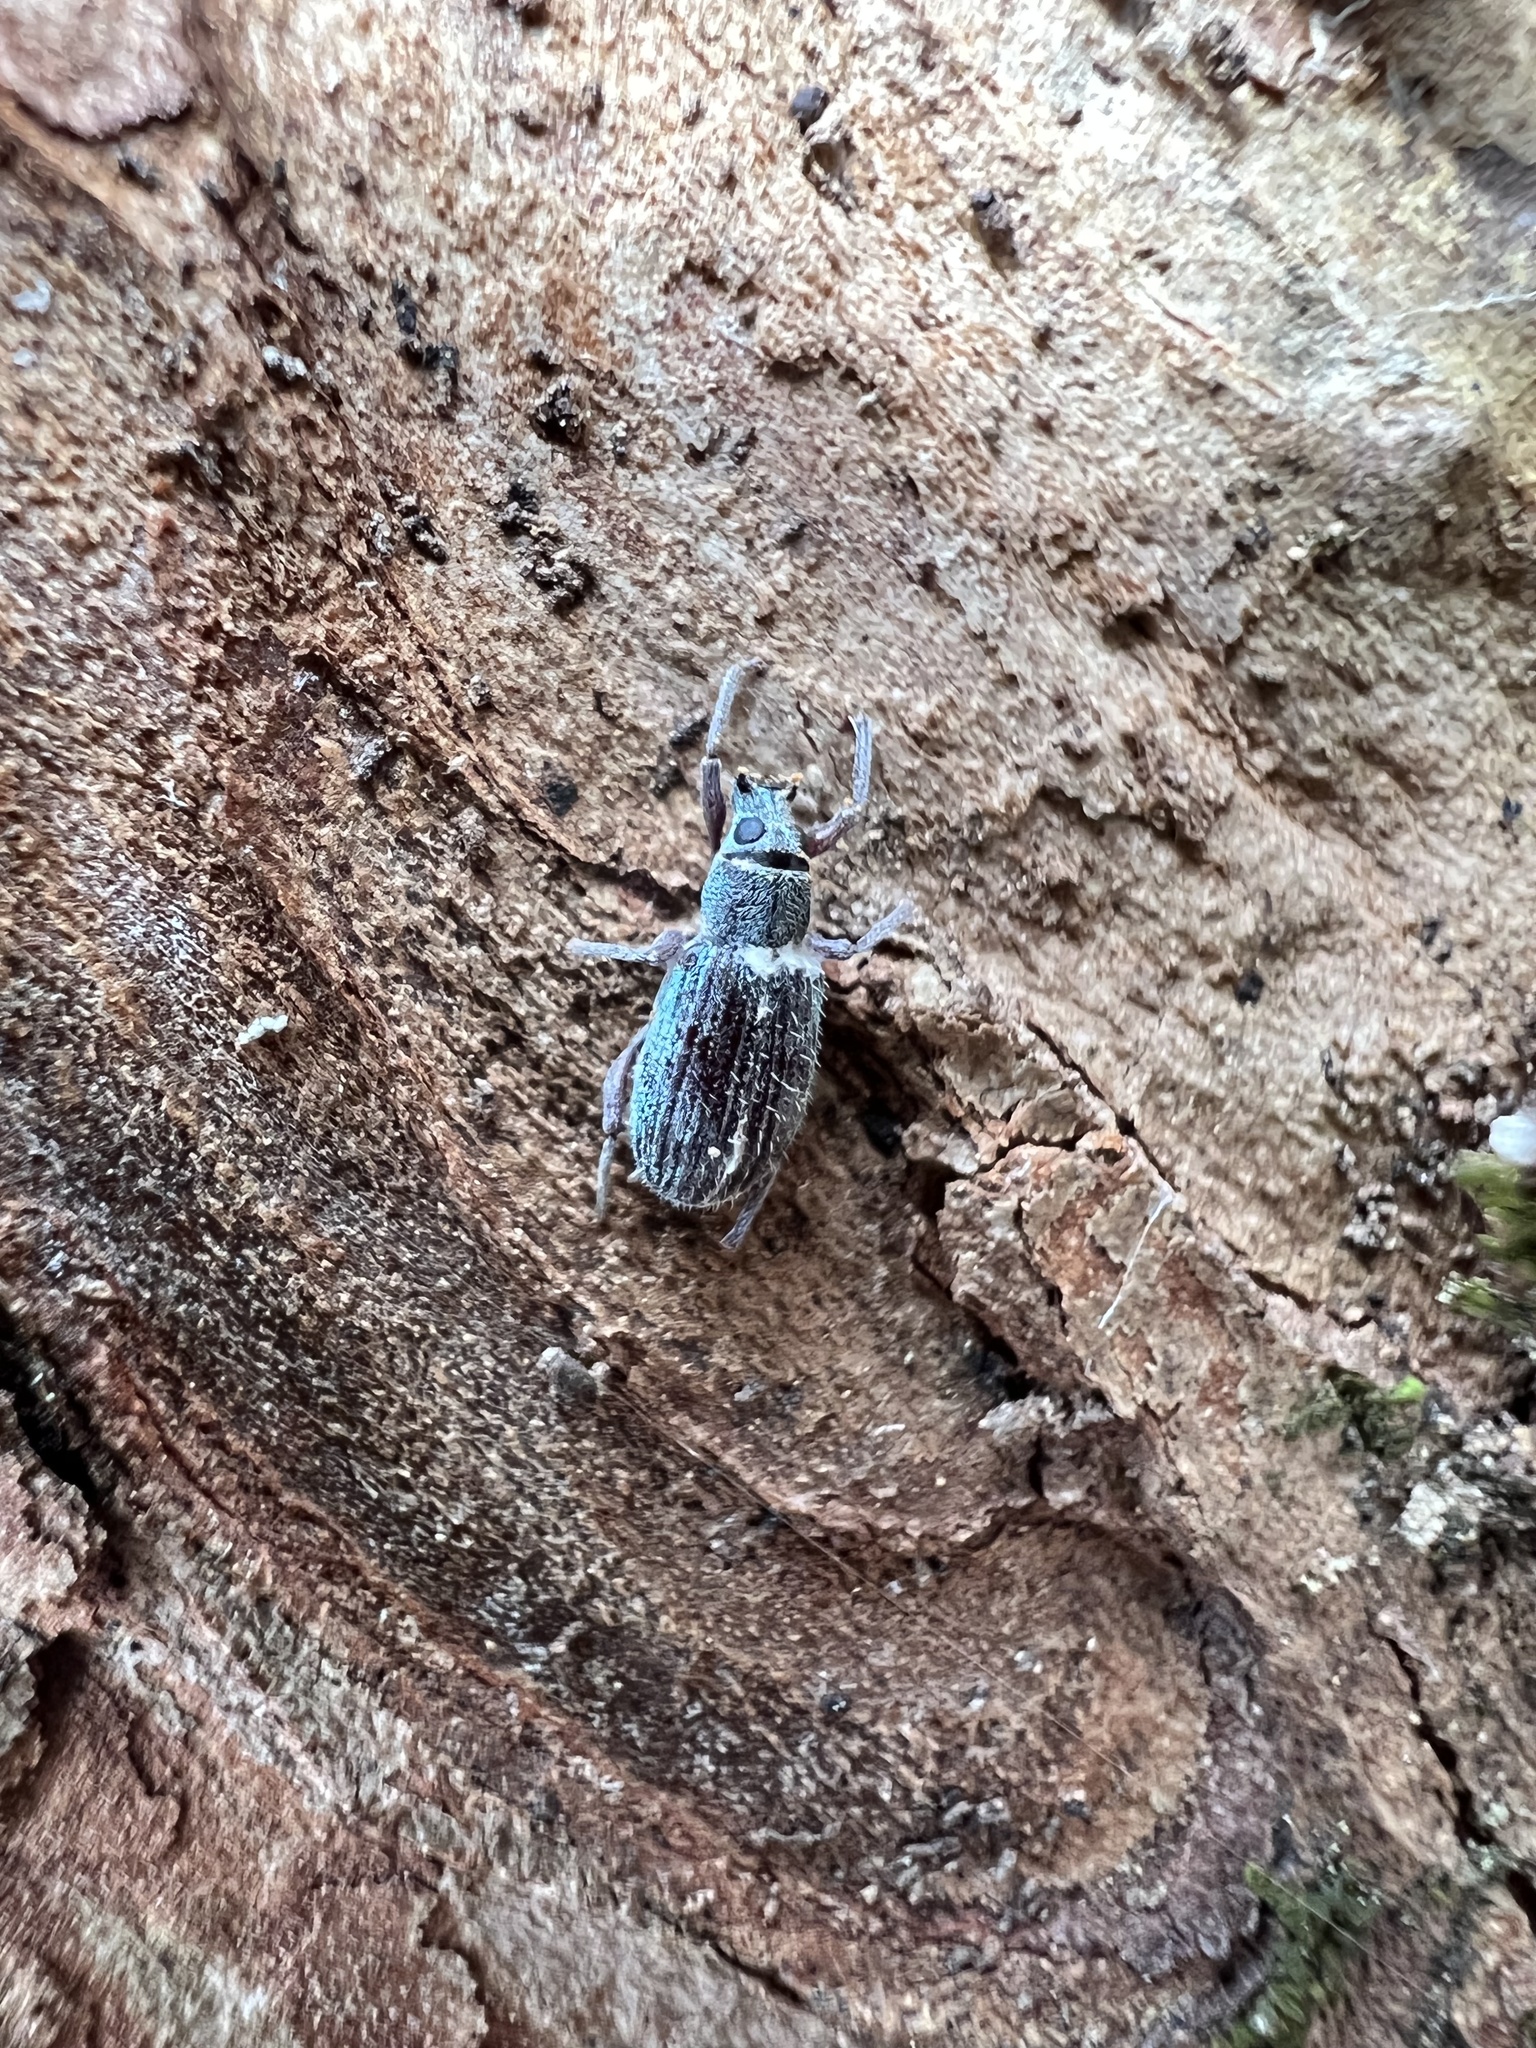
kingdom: Animalia
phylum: Arthropoda
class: Insecta
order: Coleoptera
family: Curculionidae
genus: Cyrtepistomus
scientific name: Cyrtepistomus castaneus
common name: Weevil
